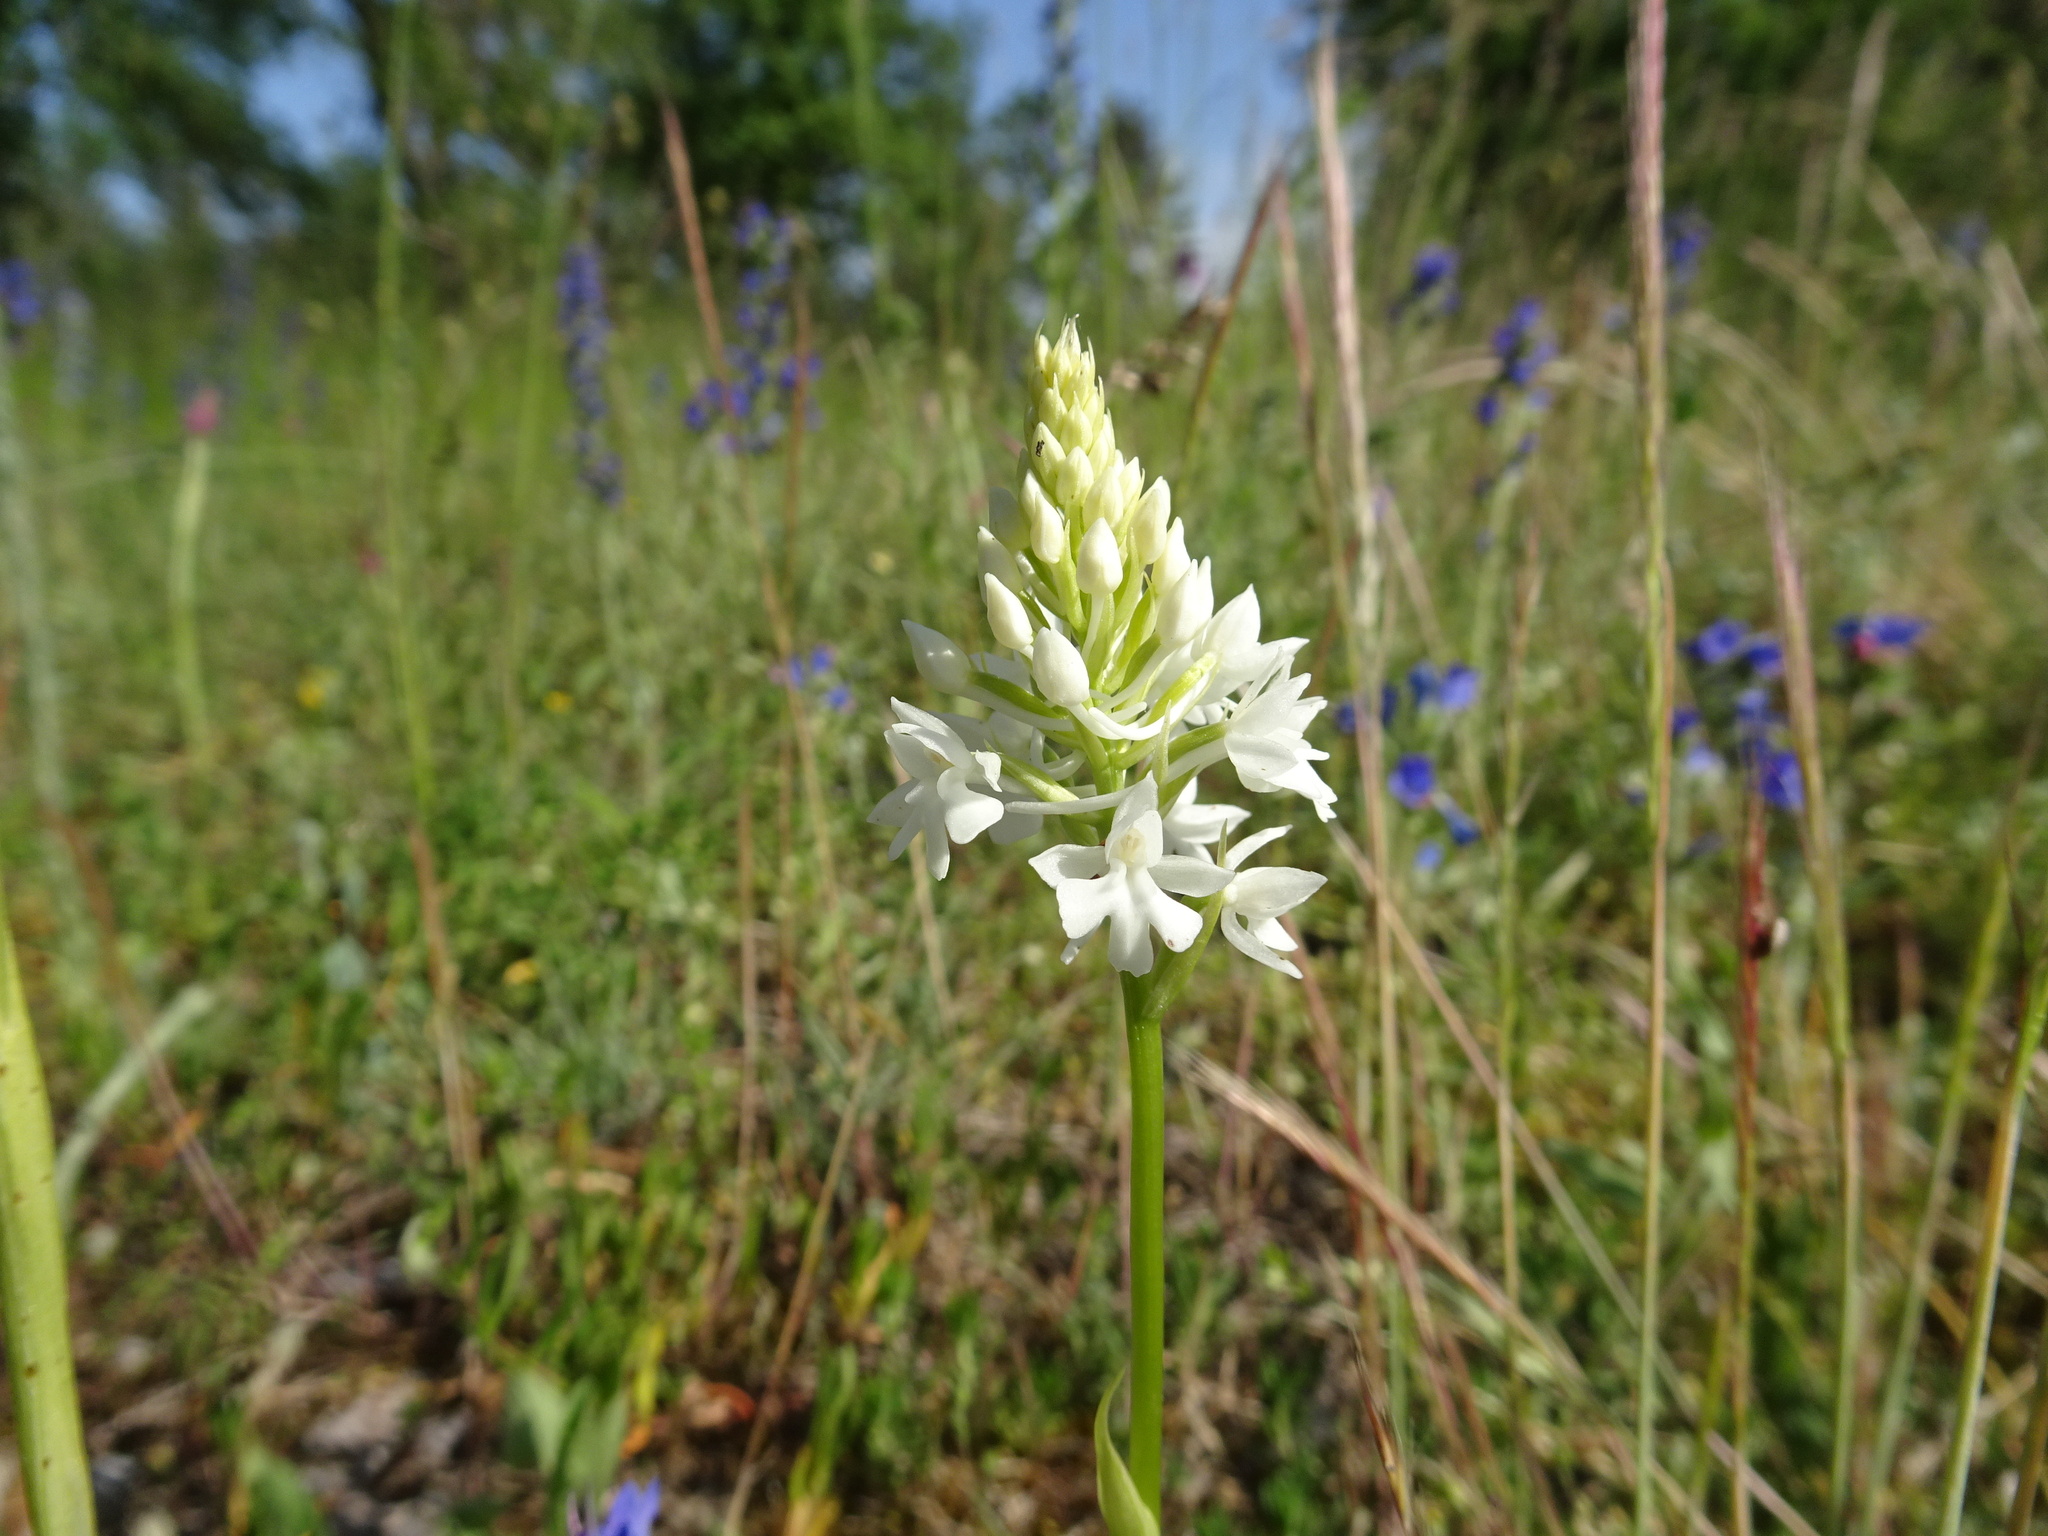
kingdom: Plantae
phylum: Tracheophyta
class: Liliopsida
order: Asparagales
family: Orchidaceae
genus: Anacamptis
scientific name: Anacamptis pyramidalis
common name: Pyramidal orchid
